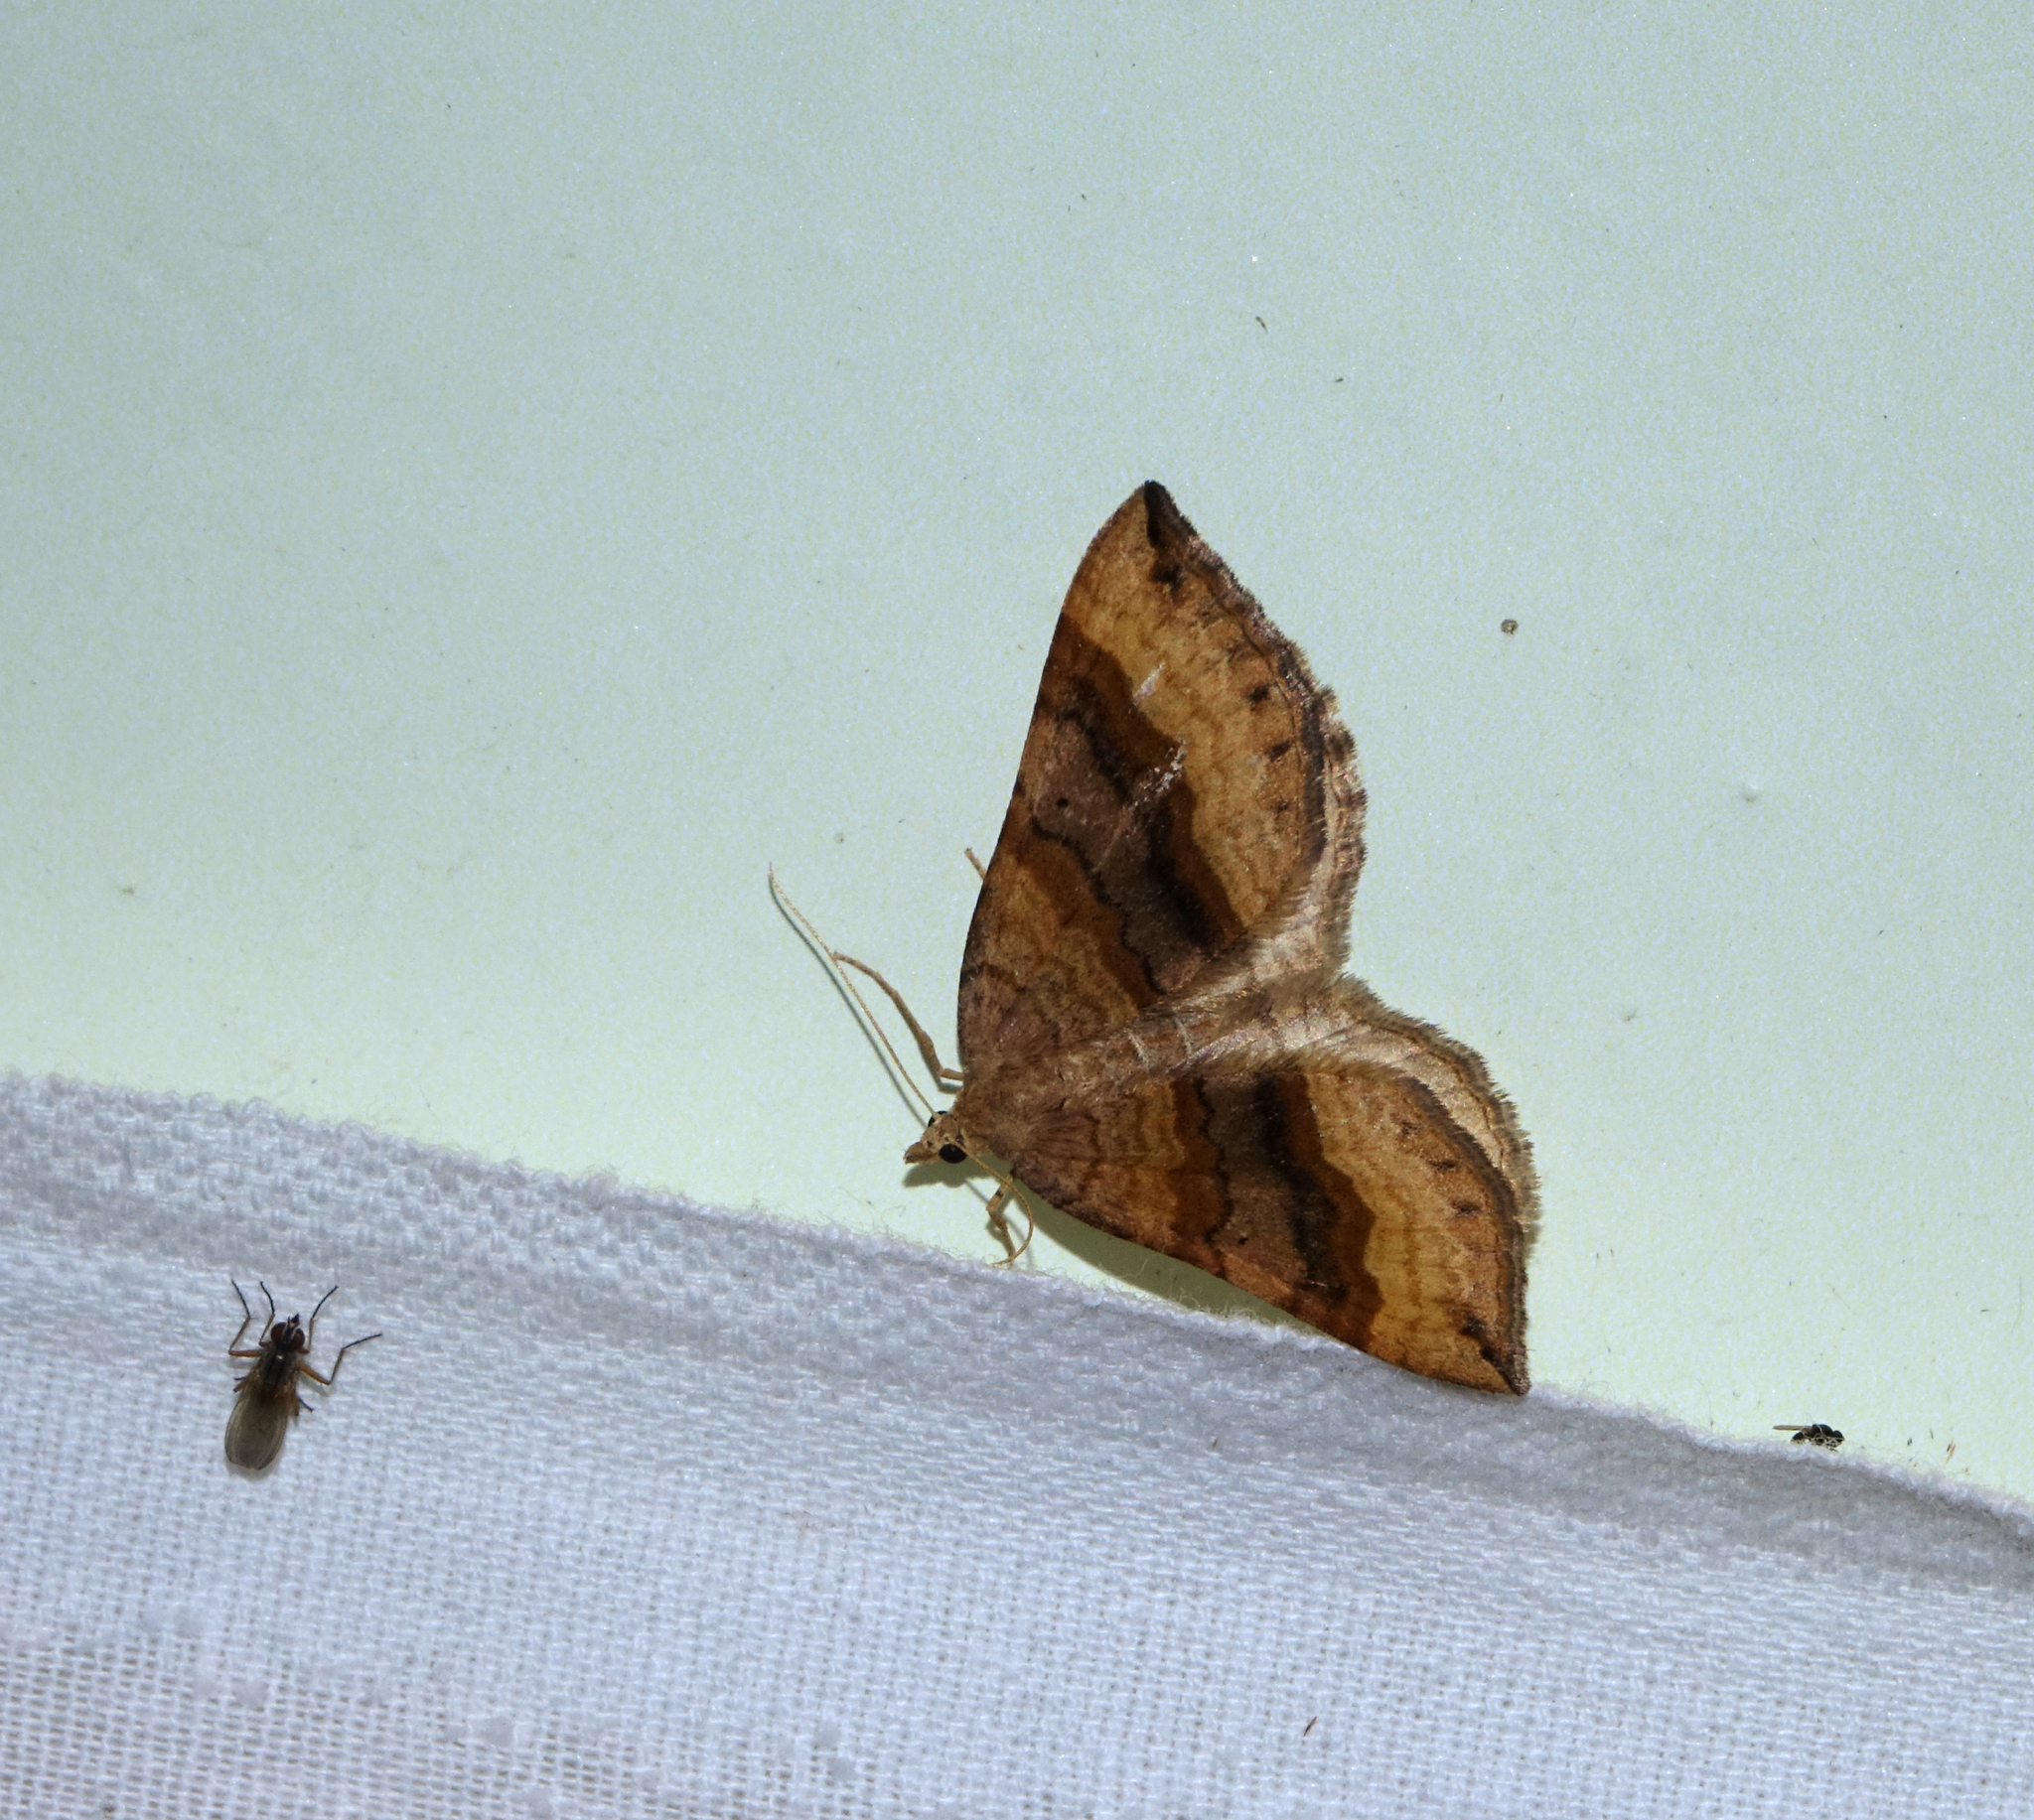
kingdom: Animalia
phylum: Arthropoda
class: Insecta
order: Lepidoptera
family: Geometridae
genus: Scotopteryx
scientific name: Scotopteryx chenopodiata
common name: Shaded broad-bar
